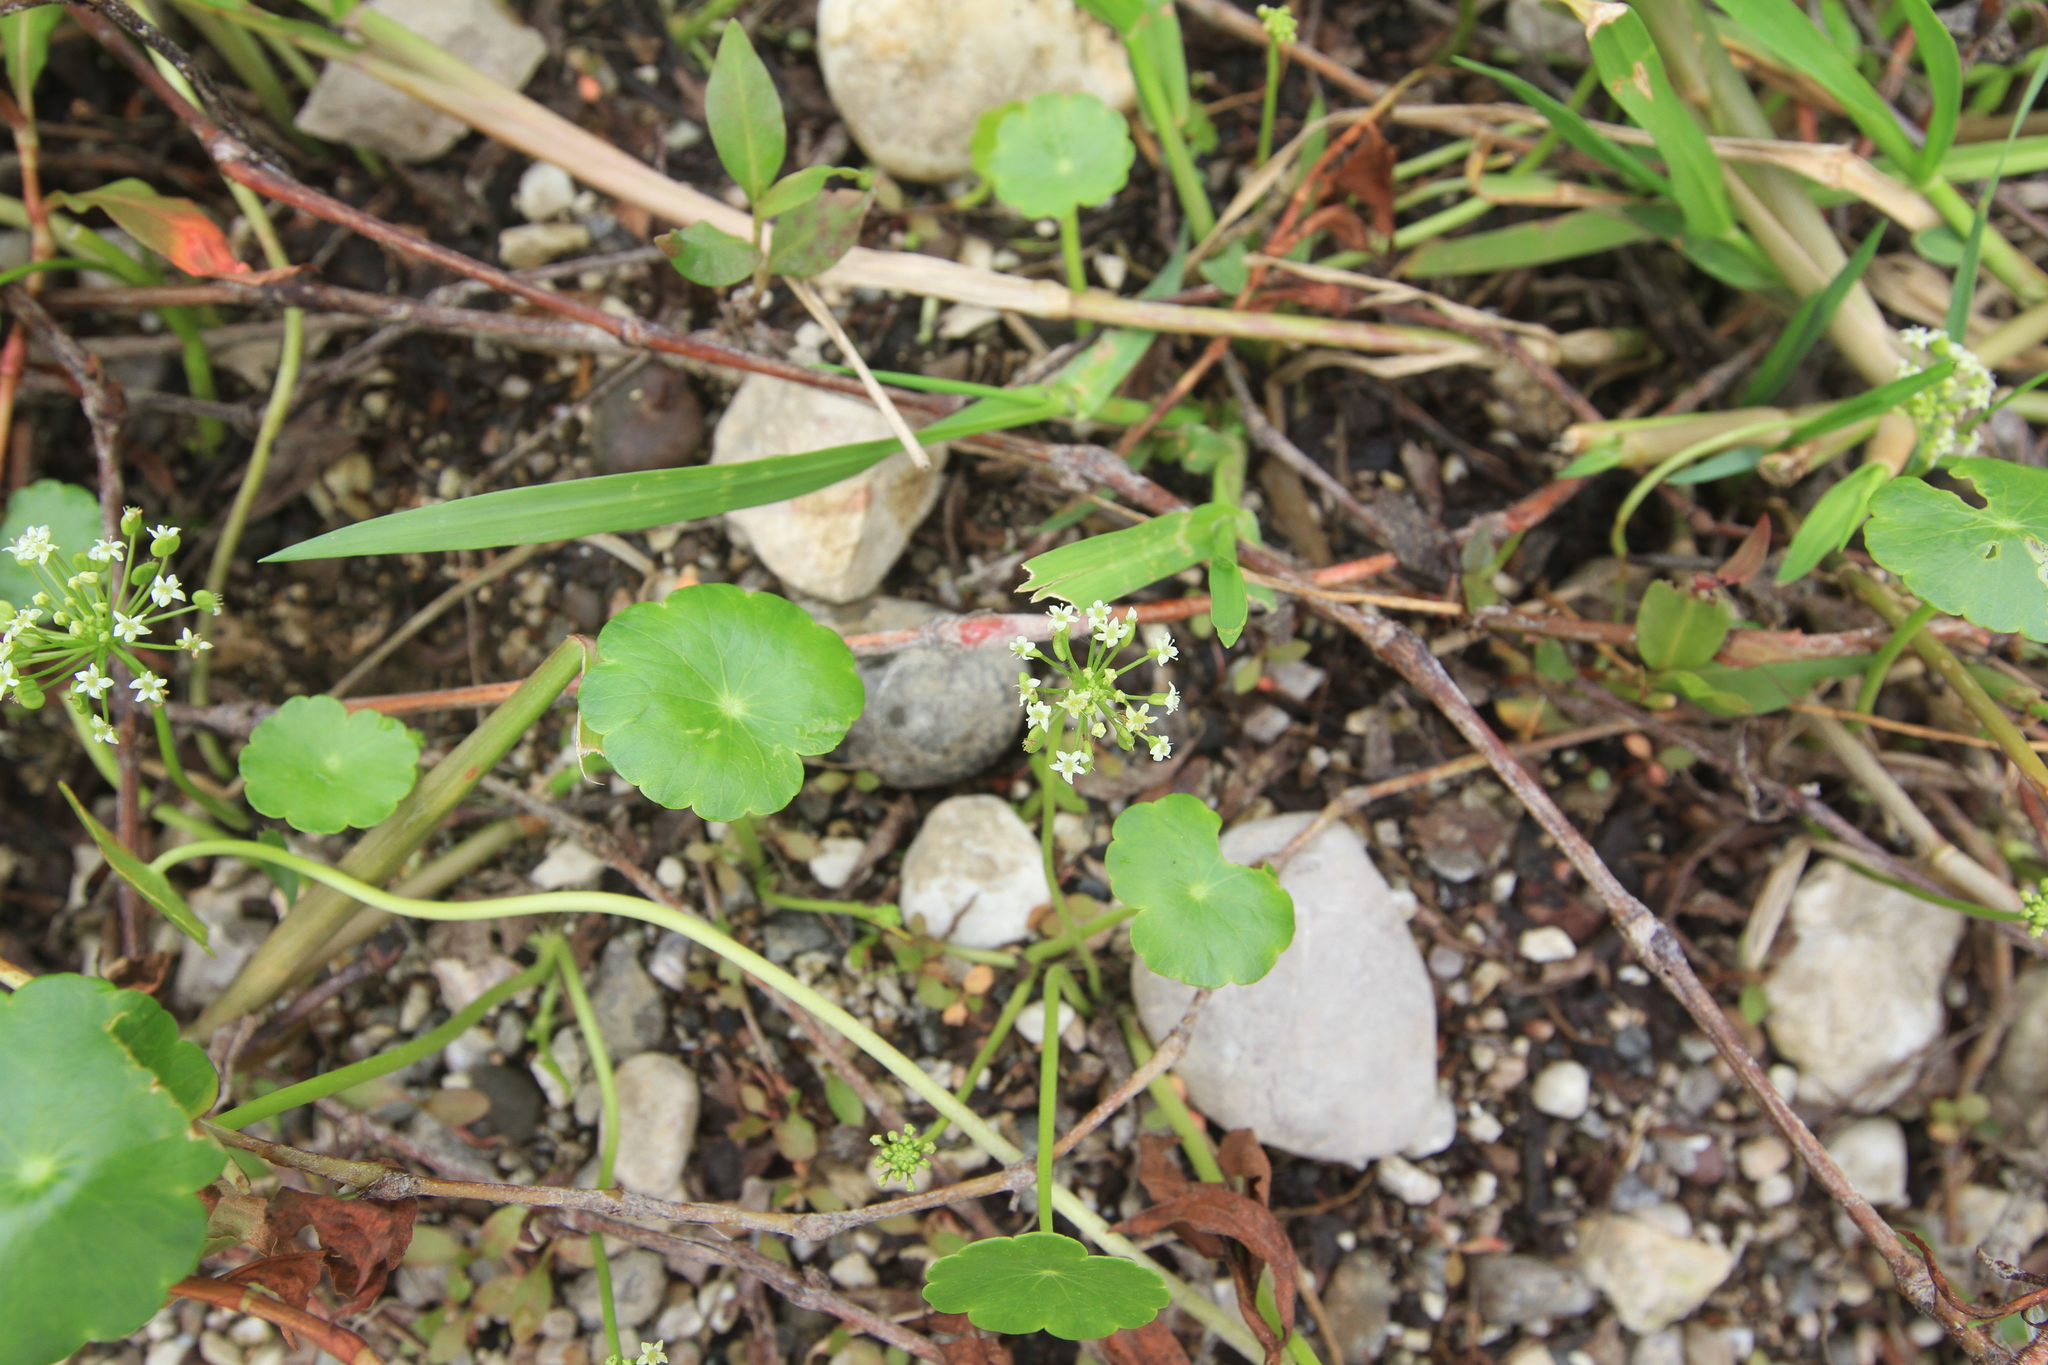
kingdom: Plantae
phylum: Tracheophyta
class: Magnoliopsida
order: Apiales
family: Araliaceae
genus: Hydrocotyle
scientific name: Hydrocotyle umbellata
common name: Water pennywort
